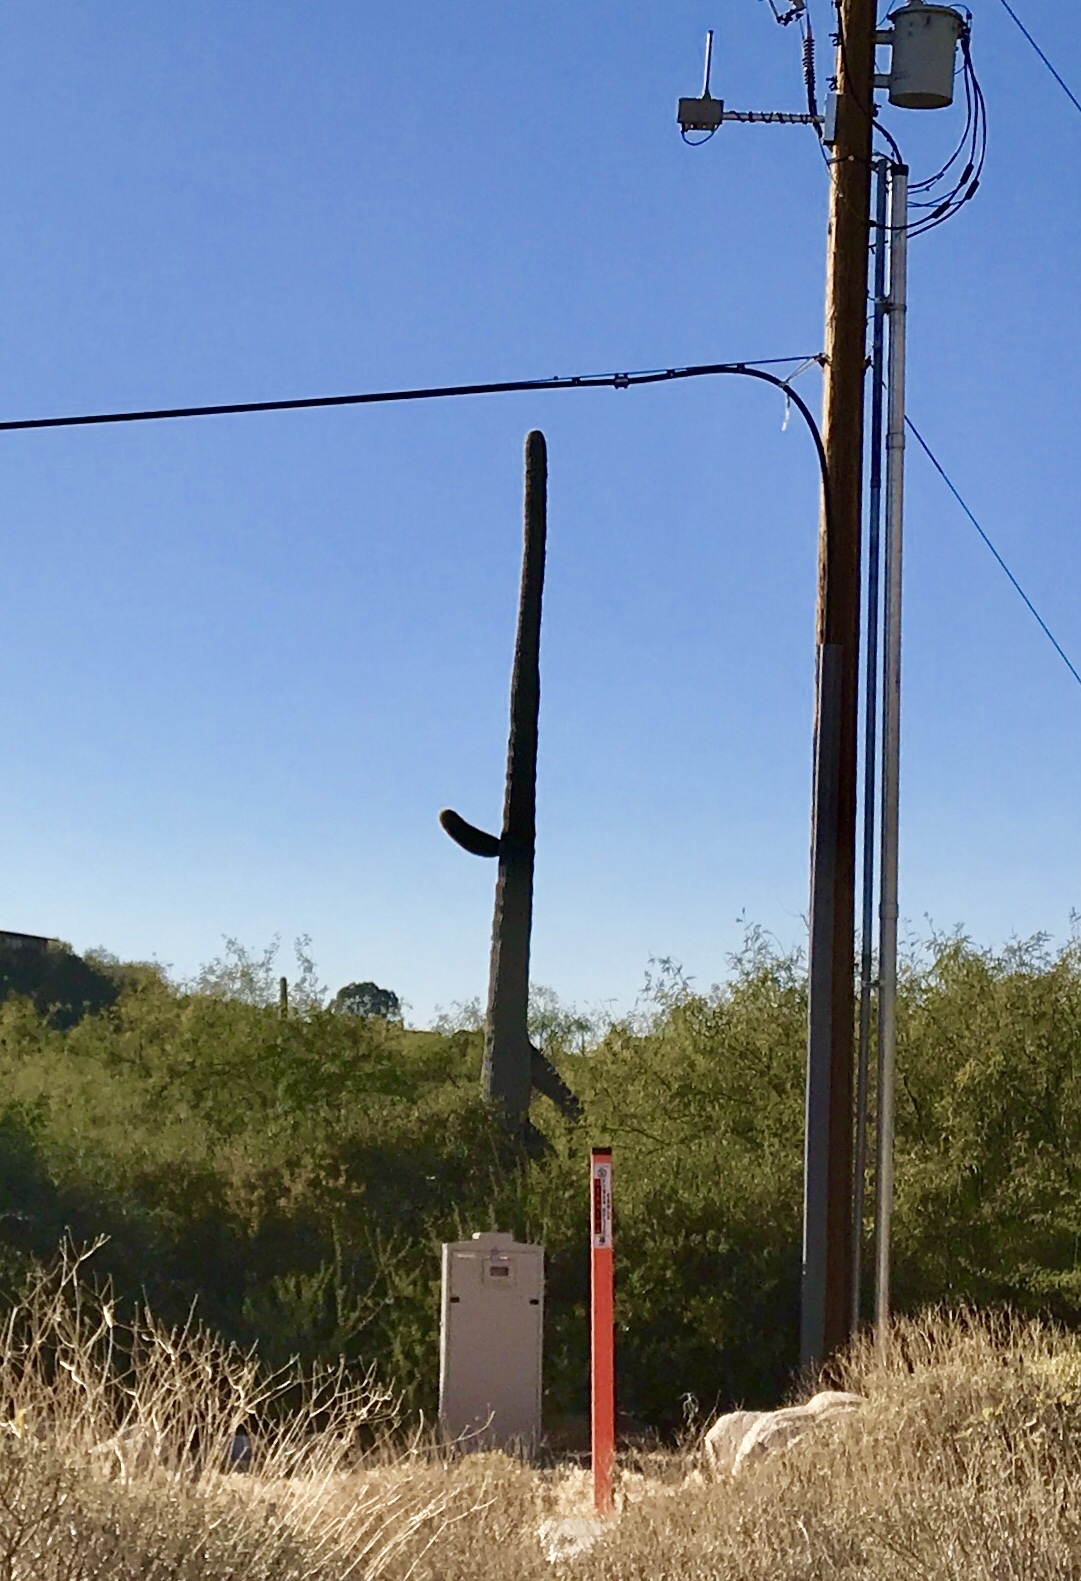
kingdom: Plantae
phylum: Tracheophyta
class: Magnoliopsida
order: Caryophyllales
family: Cactaceae
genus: Carnegiea
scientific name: Carnegiea gigantea
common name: Saguaro
